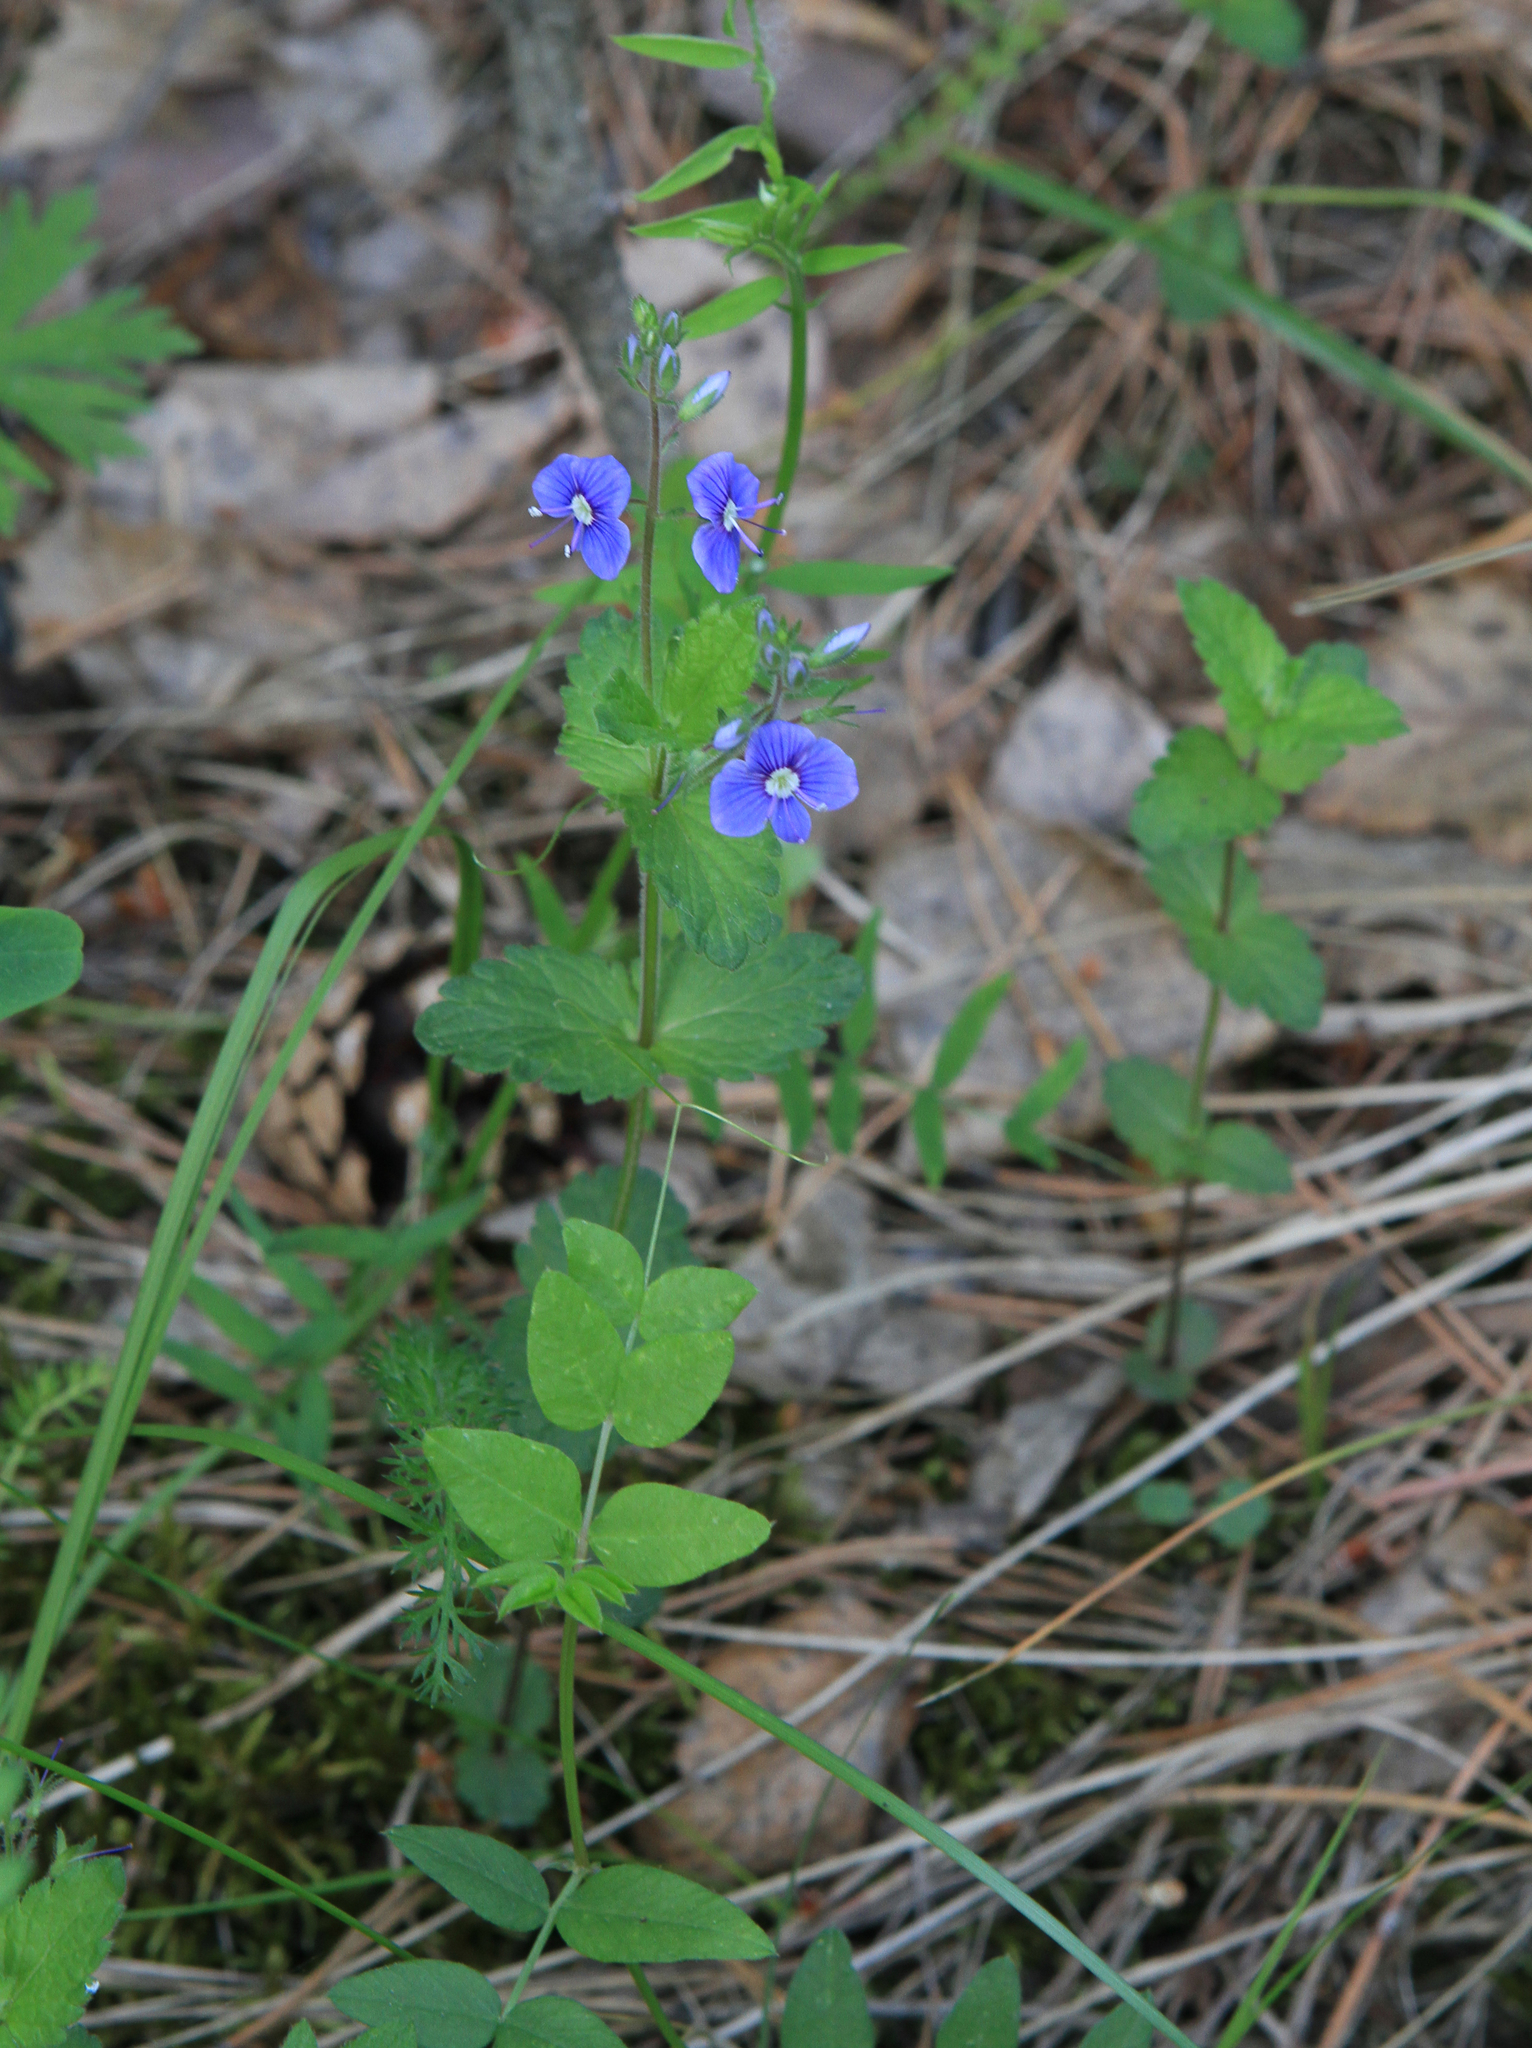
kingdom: Plantae
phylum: Tracheophyta
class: Magnoliopsida
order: Lamiales
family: Plantaginaceae
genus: Veronica
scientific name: Veronica chamaedrys
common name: Germander speedwell
